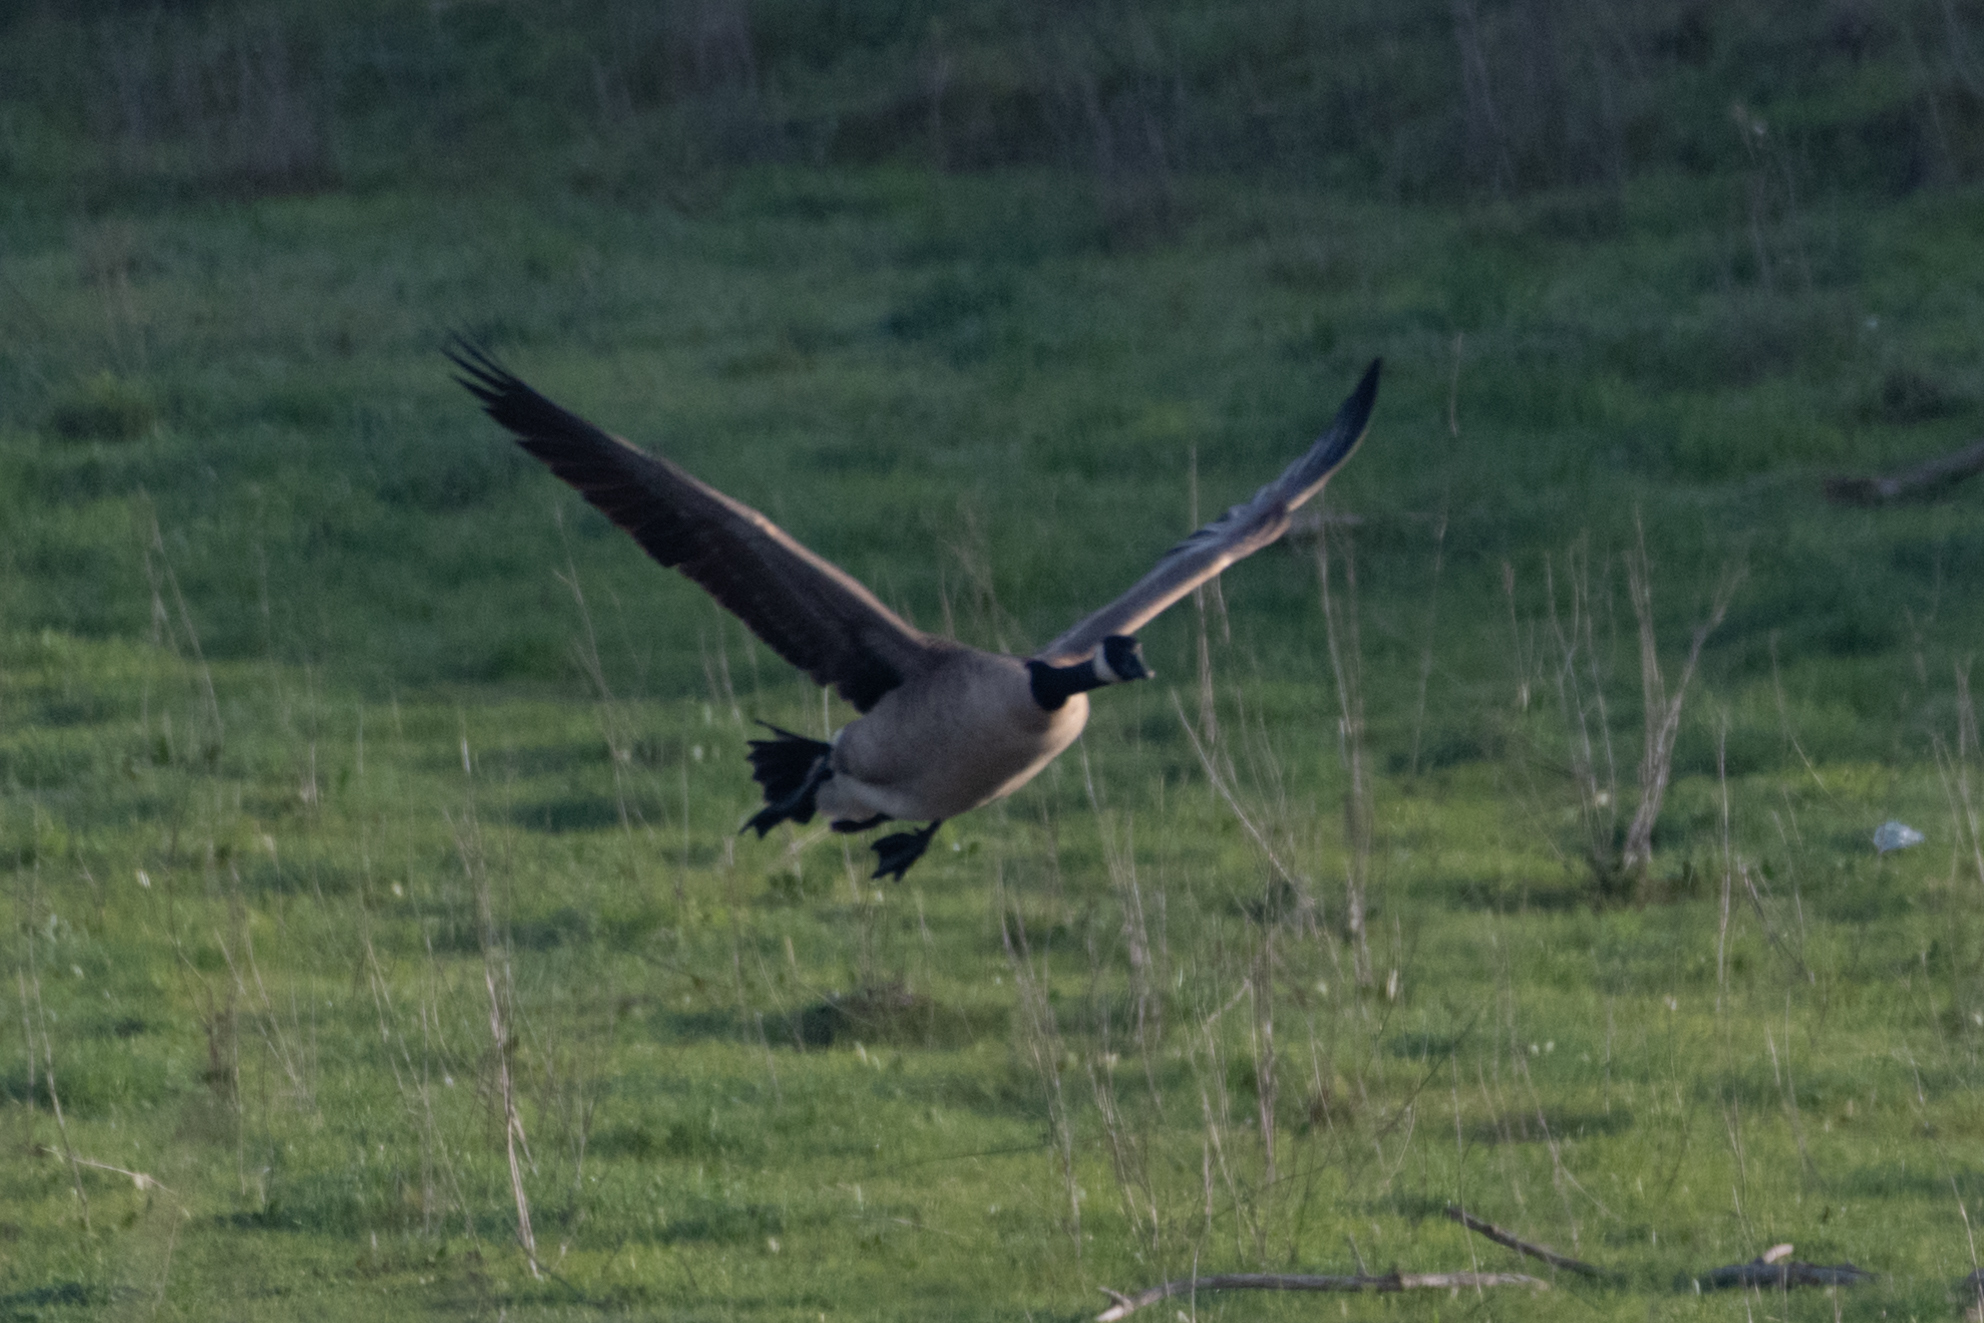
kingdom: Animalia
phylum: Chordata
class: Aves
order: Anseriformes
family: Anatidae
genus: Branta
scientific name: Branta canadensis
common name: Canada goose
